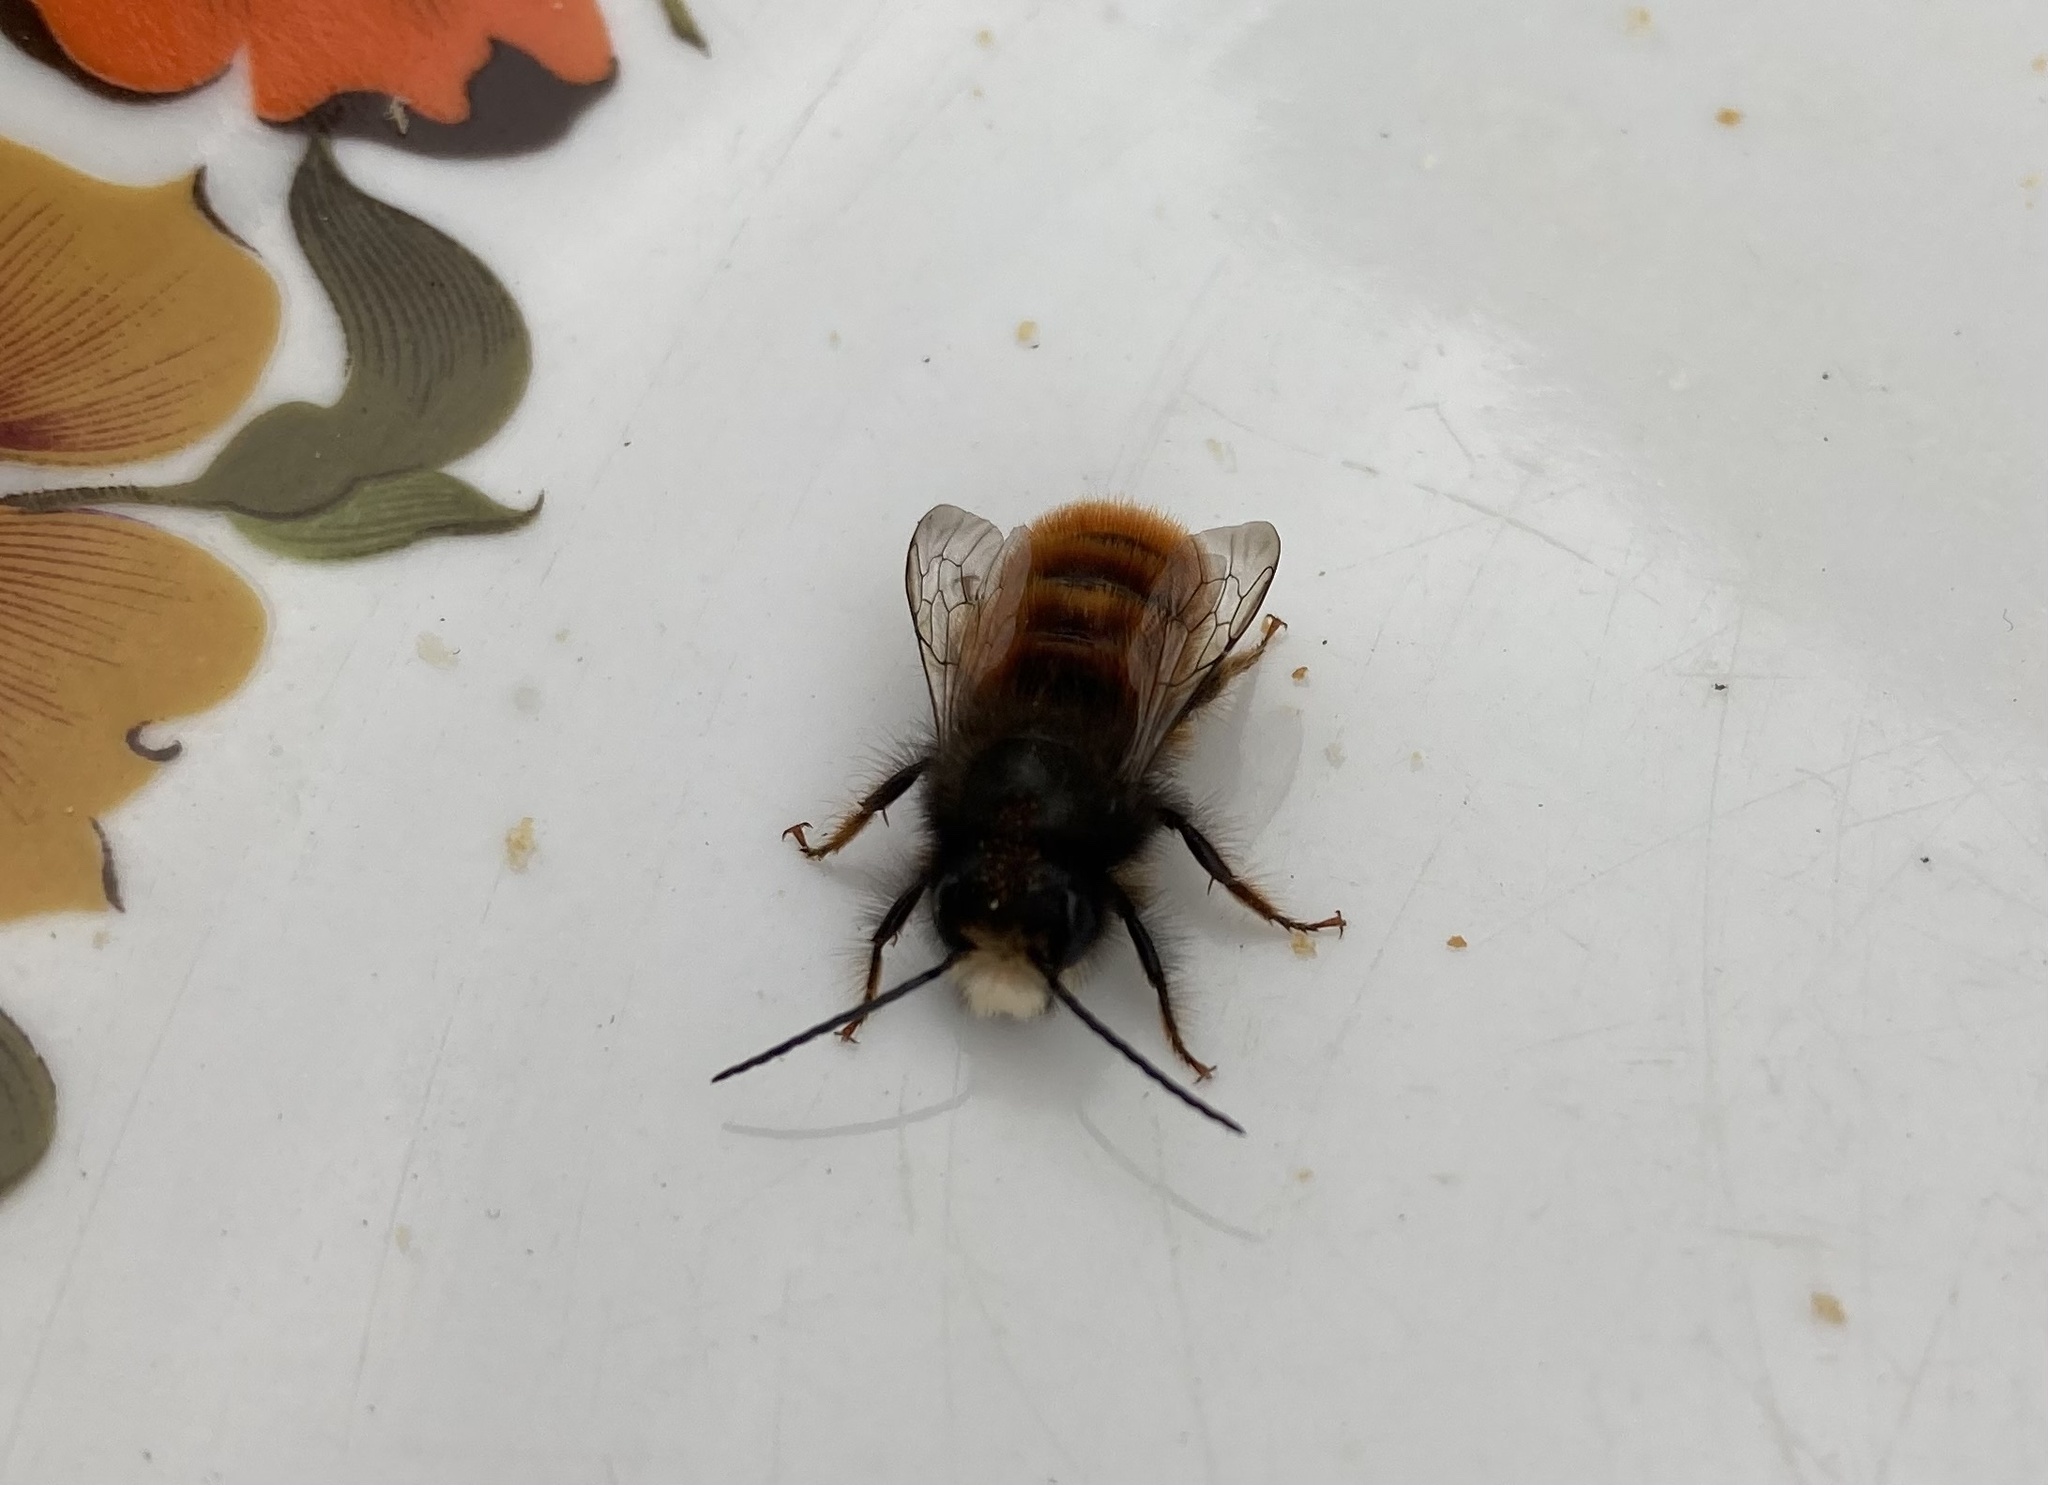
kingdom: Animalia
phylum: Arthropoda
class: Insecta
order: Hymenoptera
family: Megachilidae
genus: Osmia
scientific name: Osmia cornuta
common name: Mason bee
